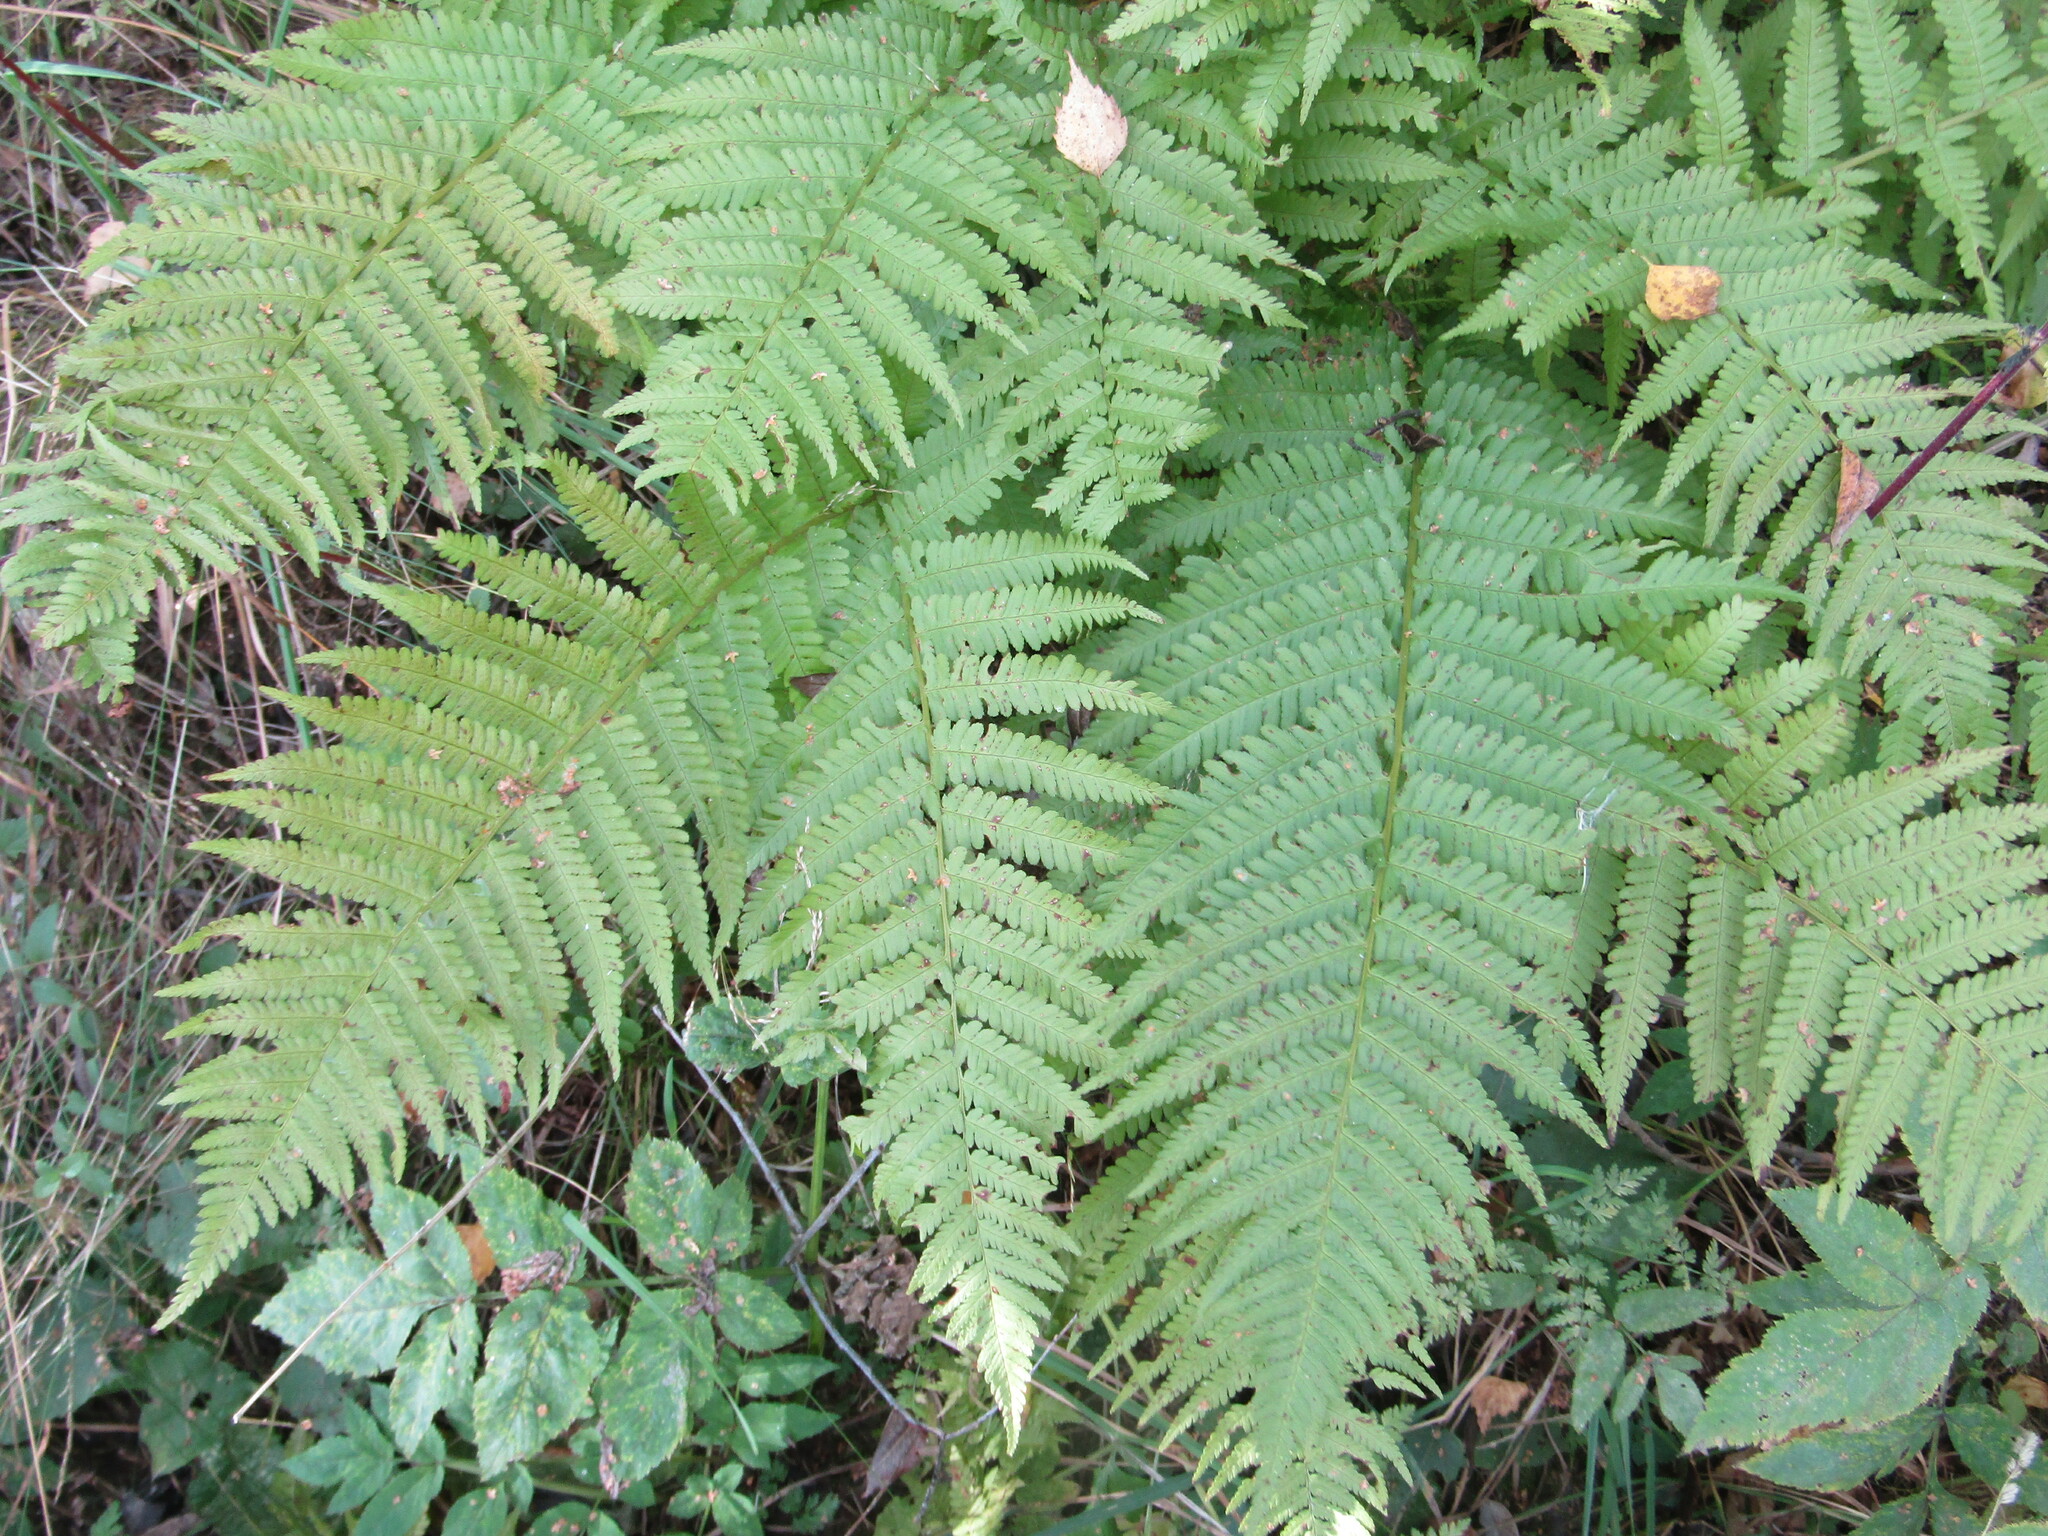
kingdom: Plantae
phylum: Tracheophyta
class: Polypodiopsida
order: Polypodiales
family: Dryopteridaceae
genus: Dryopteris
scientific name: Dryopteris filix-mas
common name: Male fern
